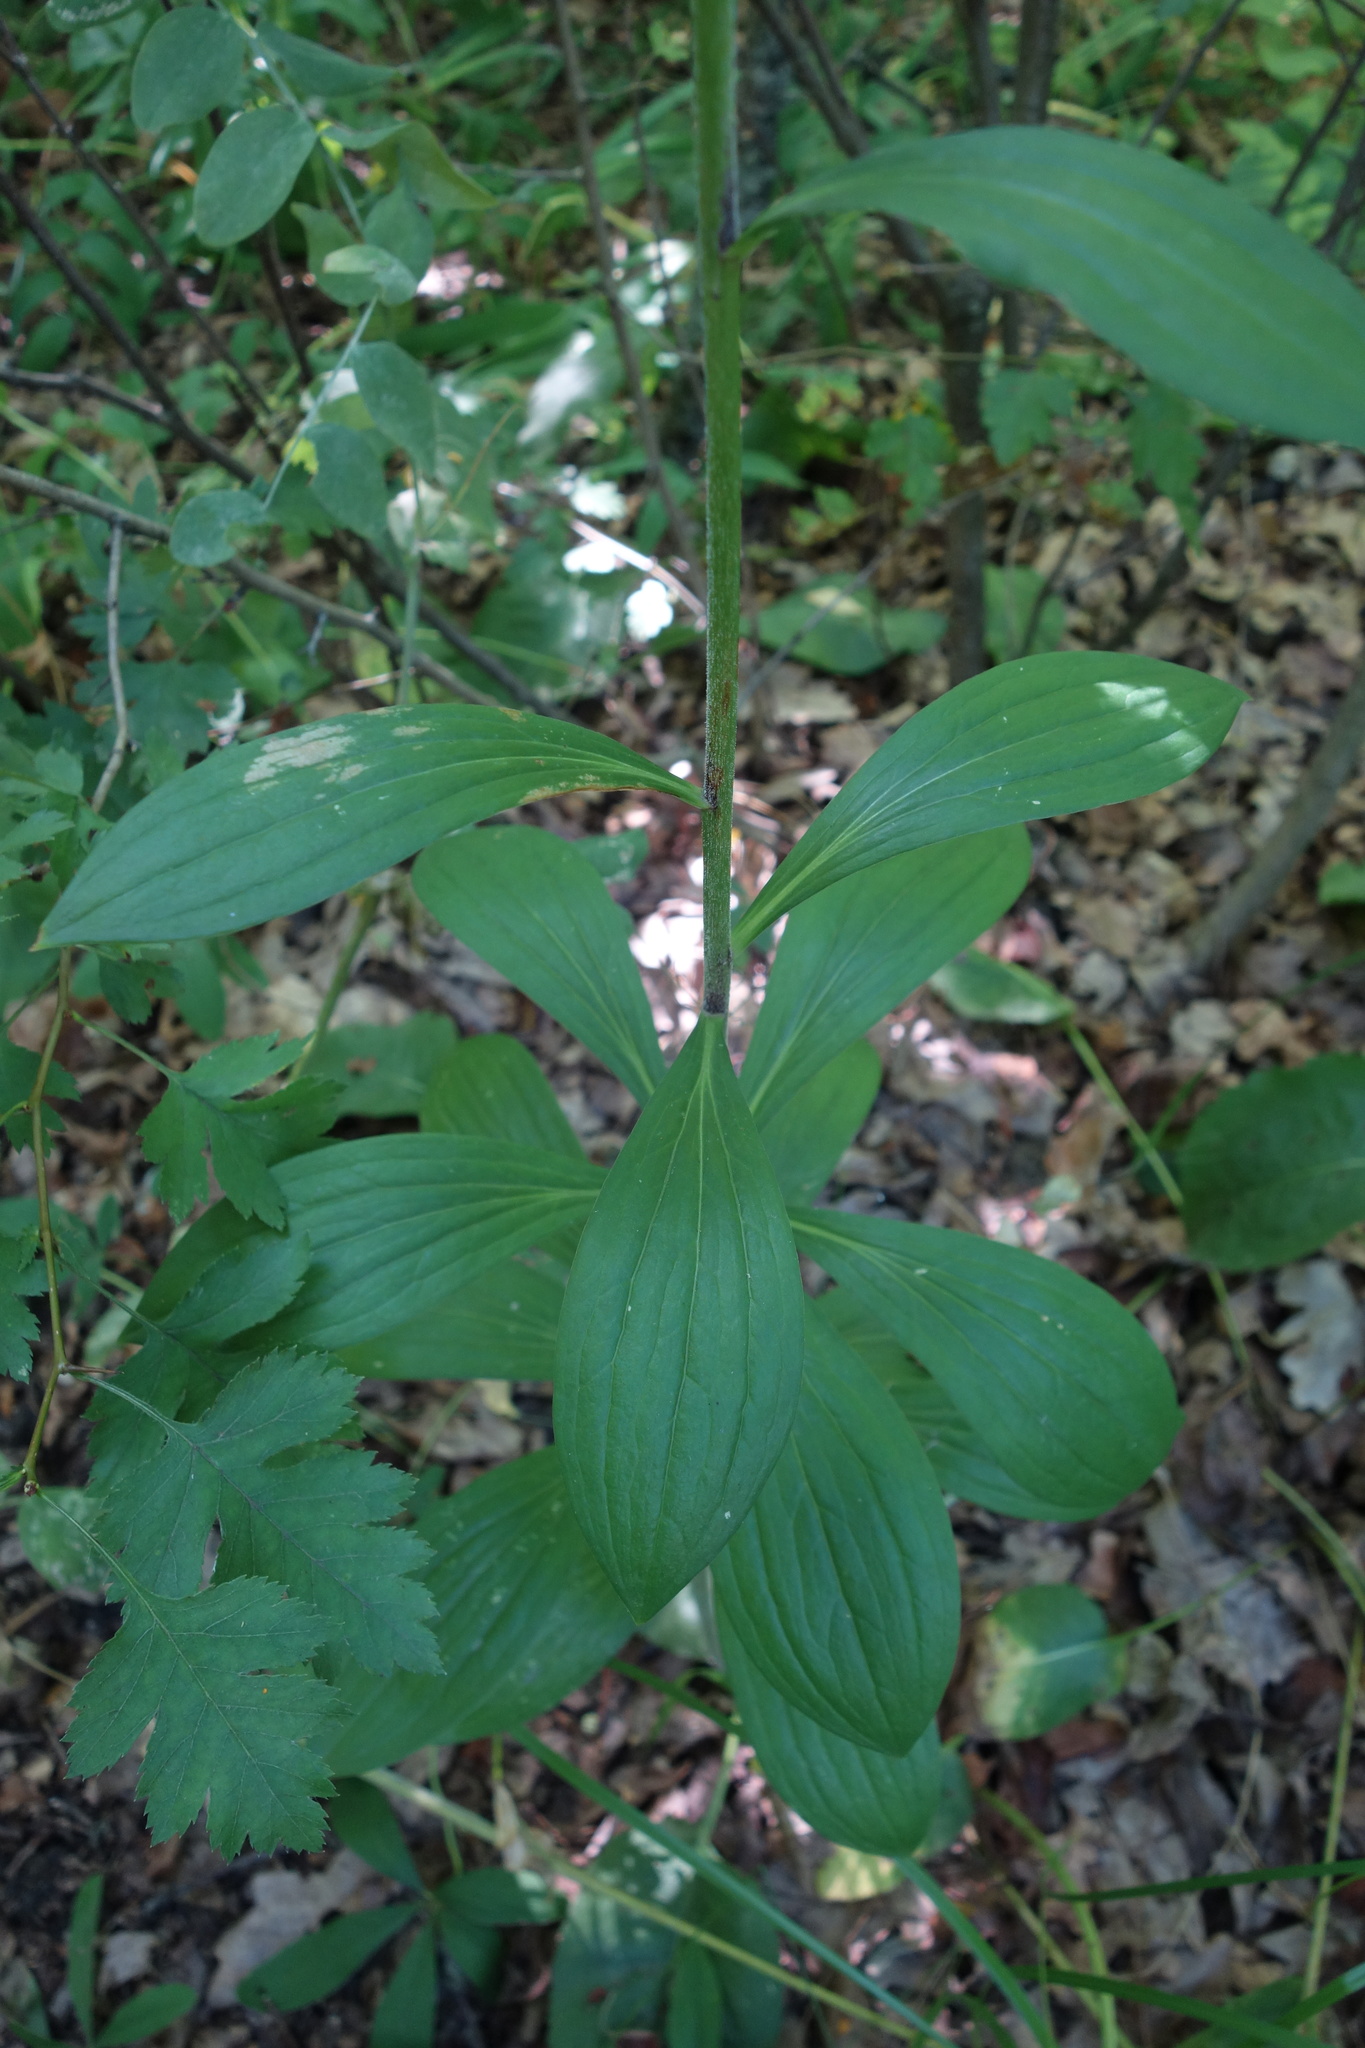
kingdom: Plantae
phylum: Tracheophyta
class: Liliopsida
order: Liliales
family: Liliaceae
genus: Lilium
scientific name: Lilium martagon
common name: Martagon lily
